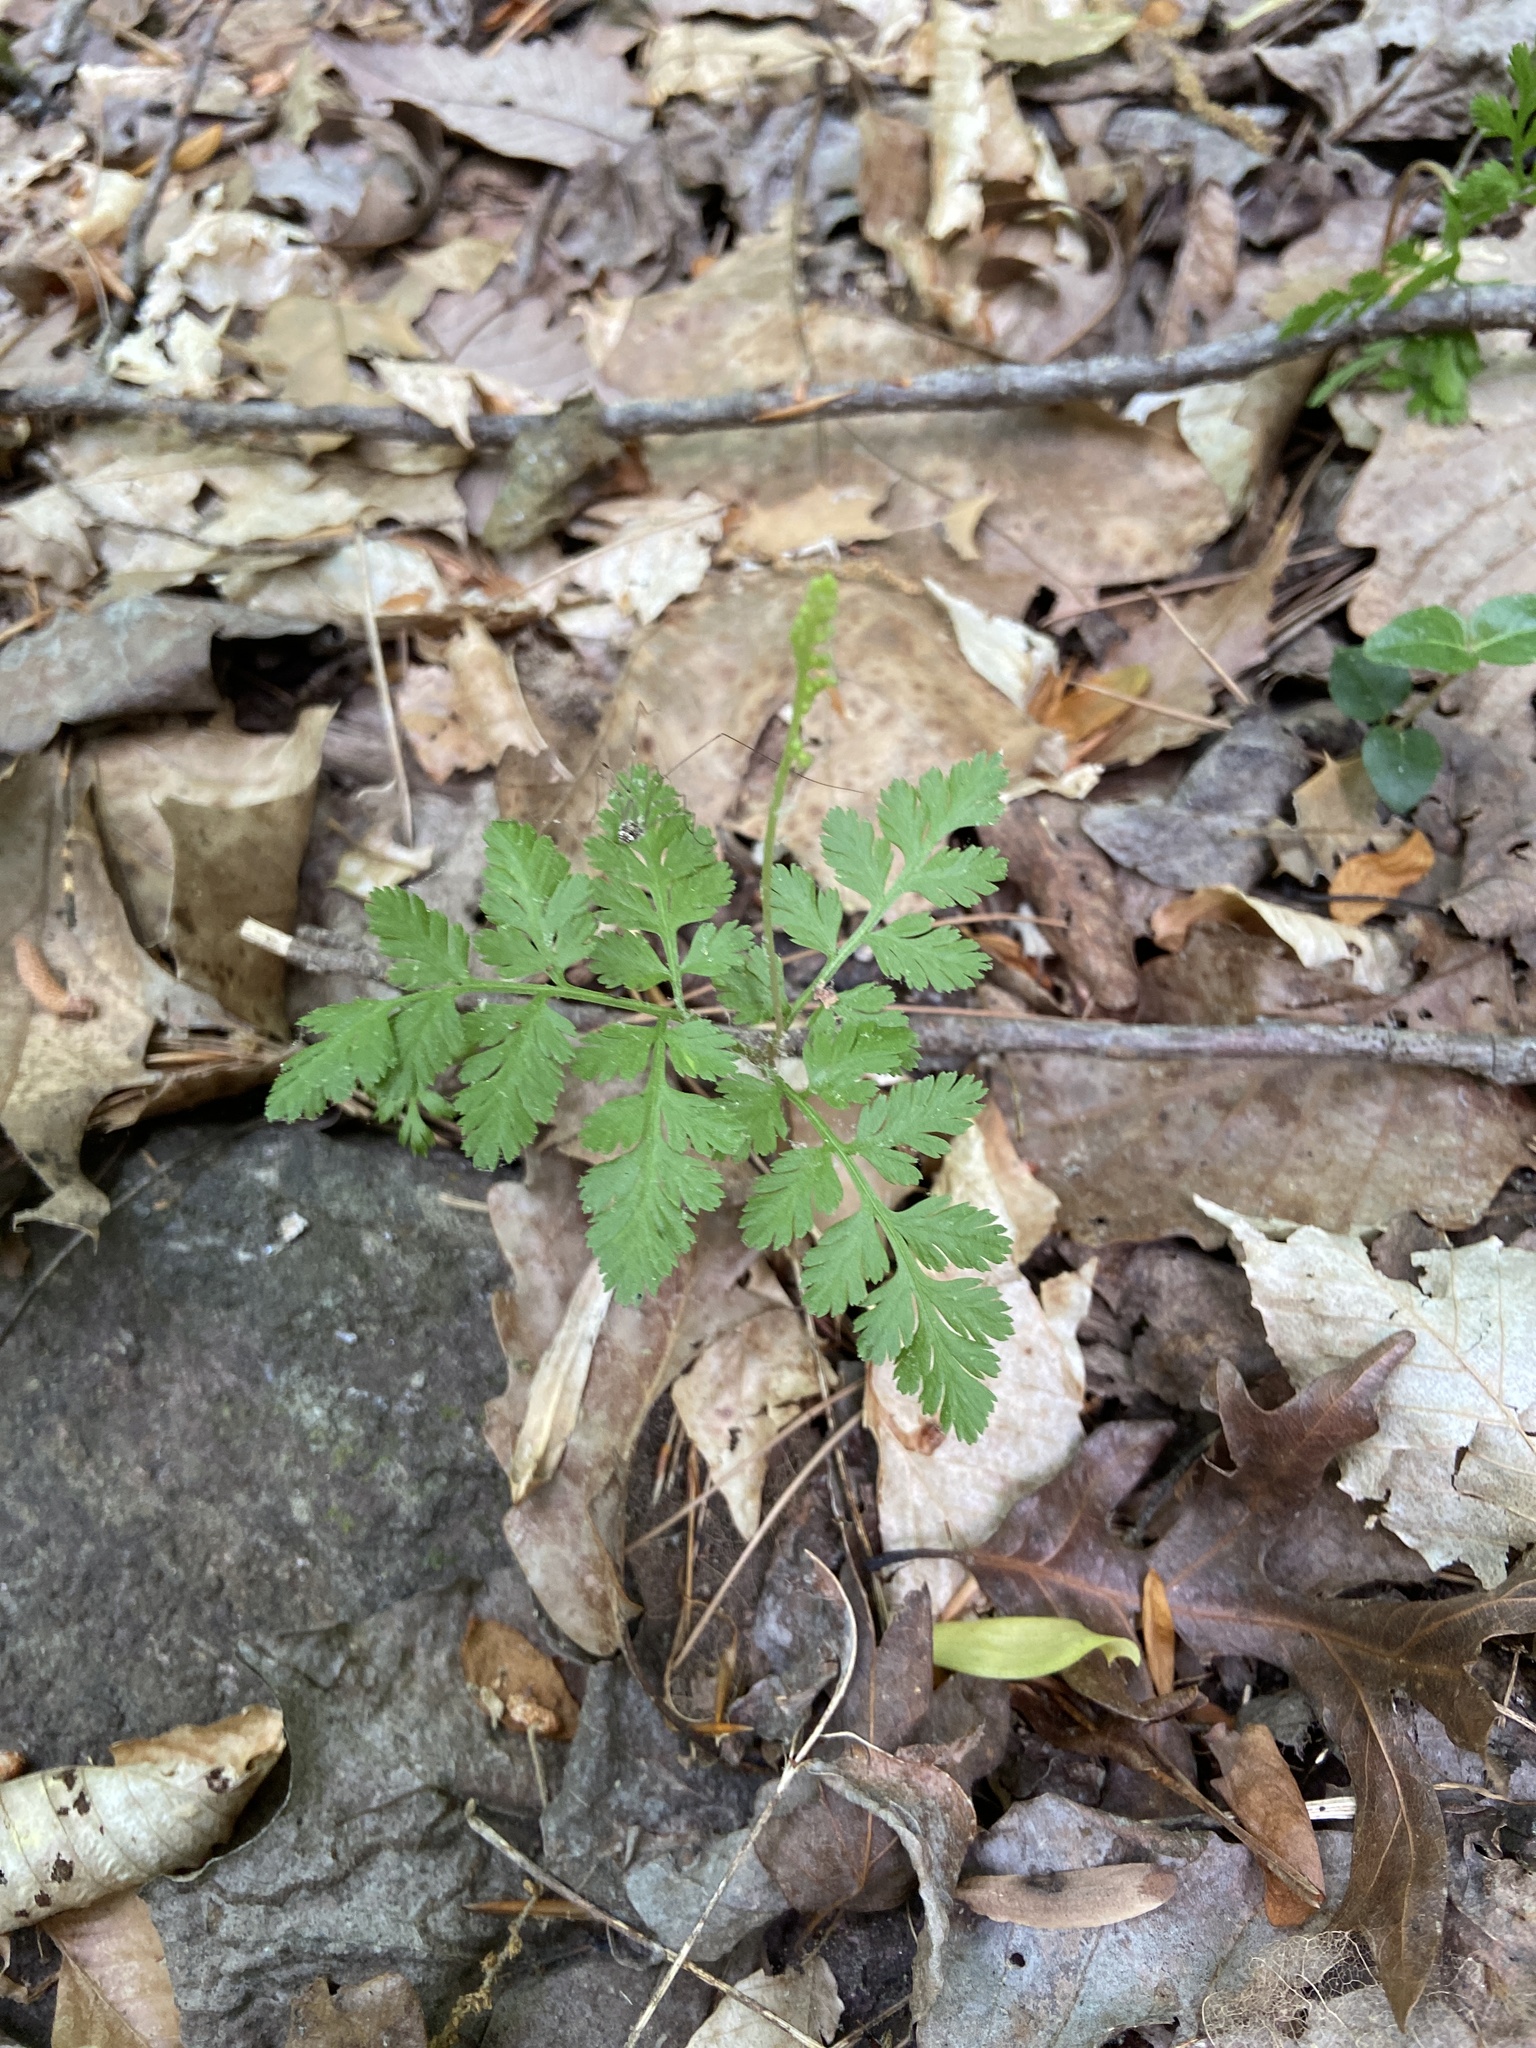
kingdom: Plantae
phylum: Tracheophyta
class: Polypodiopsida
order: Ophioglossales
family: Ophioglossaceae
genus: Botrypus
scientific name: Botrypus virginianus
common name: Common grapefern
